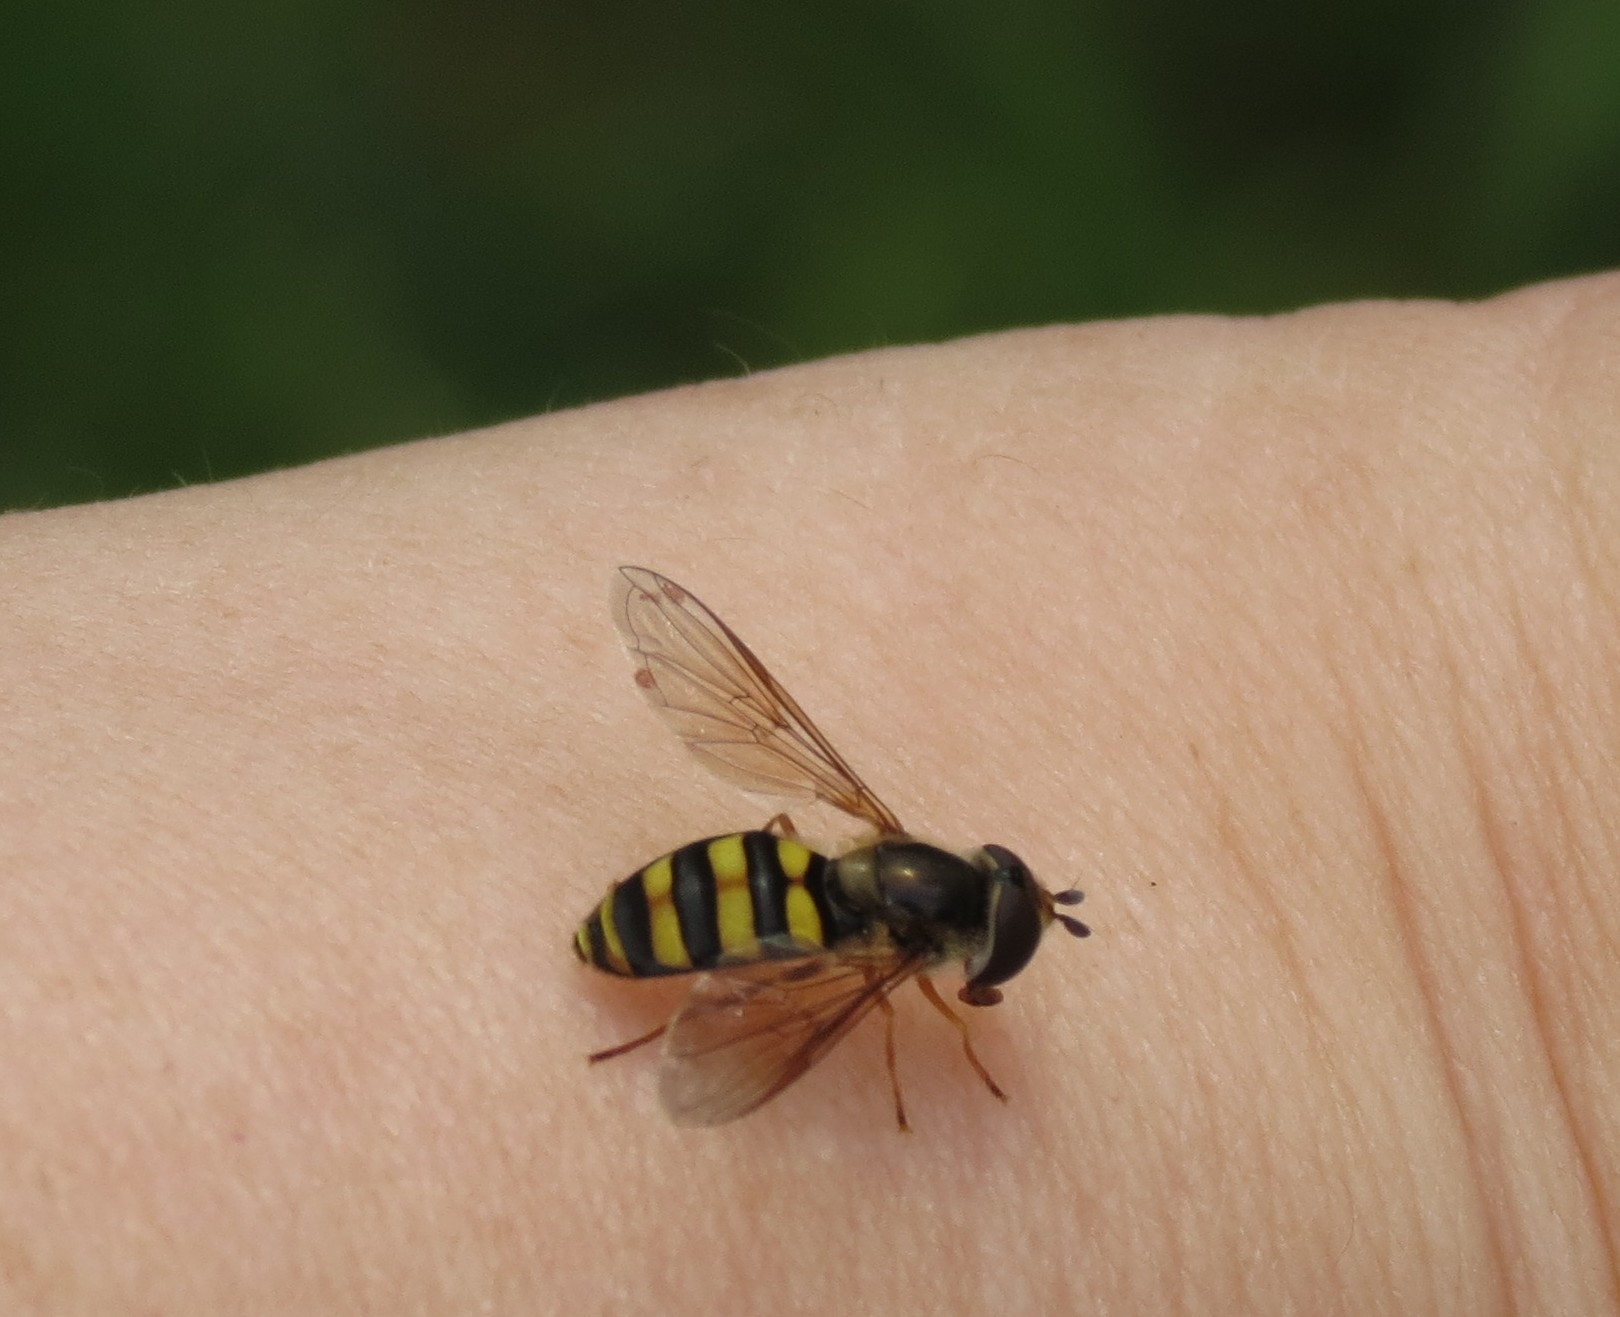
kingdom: Animalia
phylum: Arthropoda
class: Insecta
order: Diptera
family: Syrphidae
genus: Eupeodes
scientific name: Eupeodes
